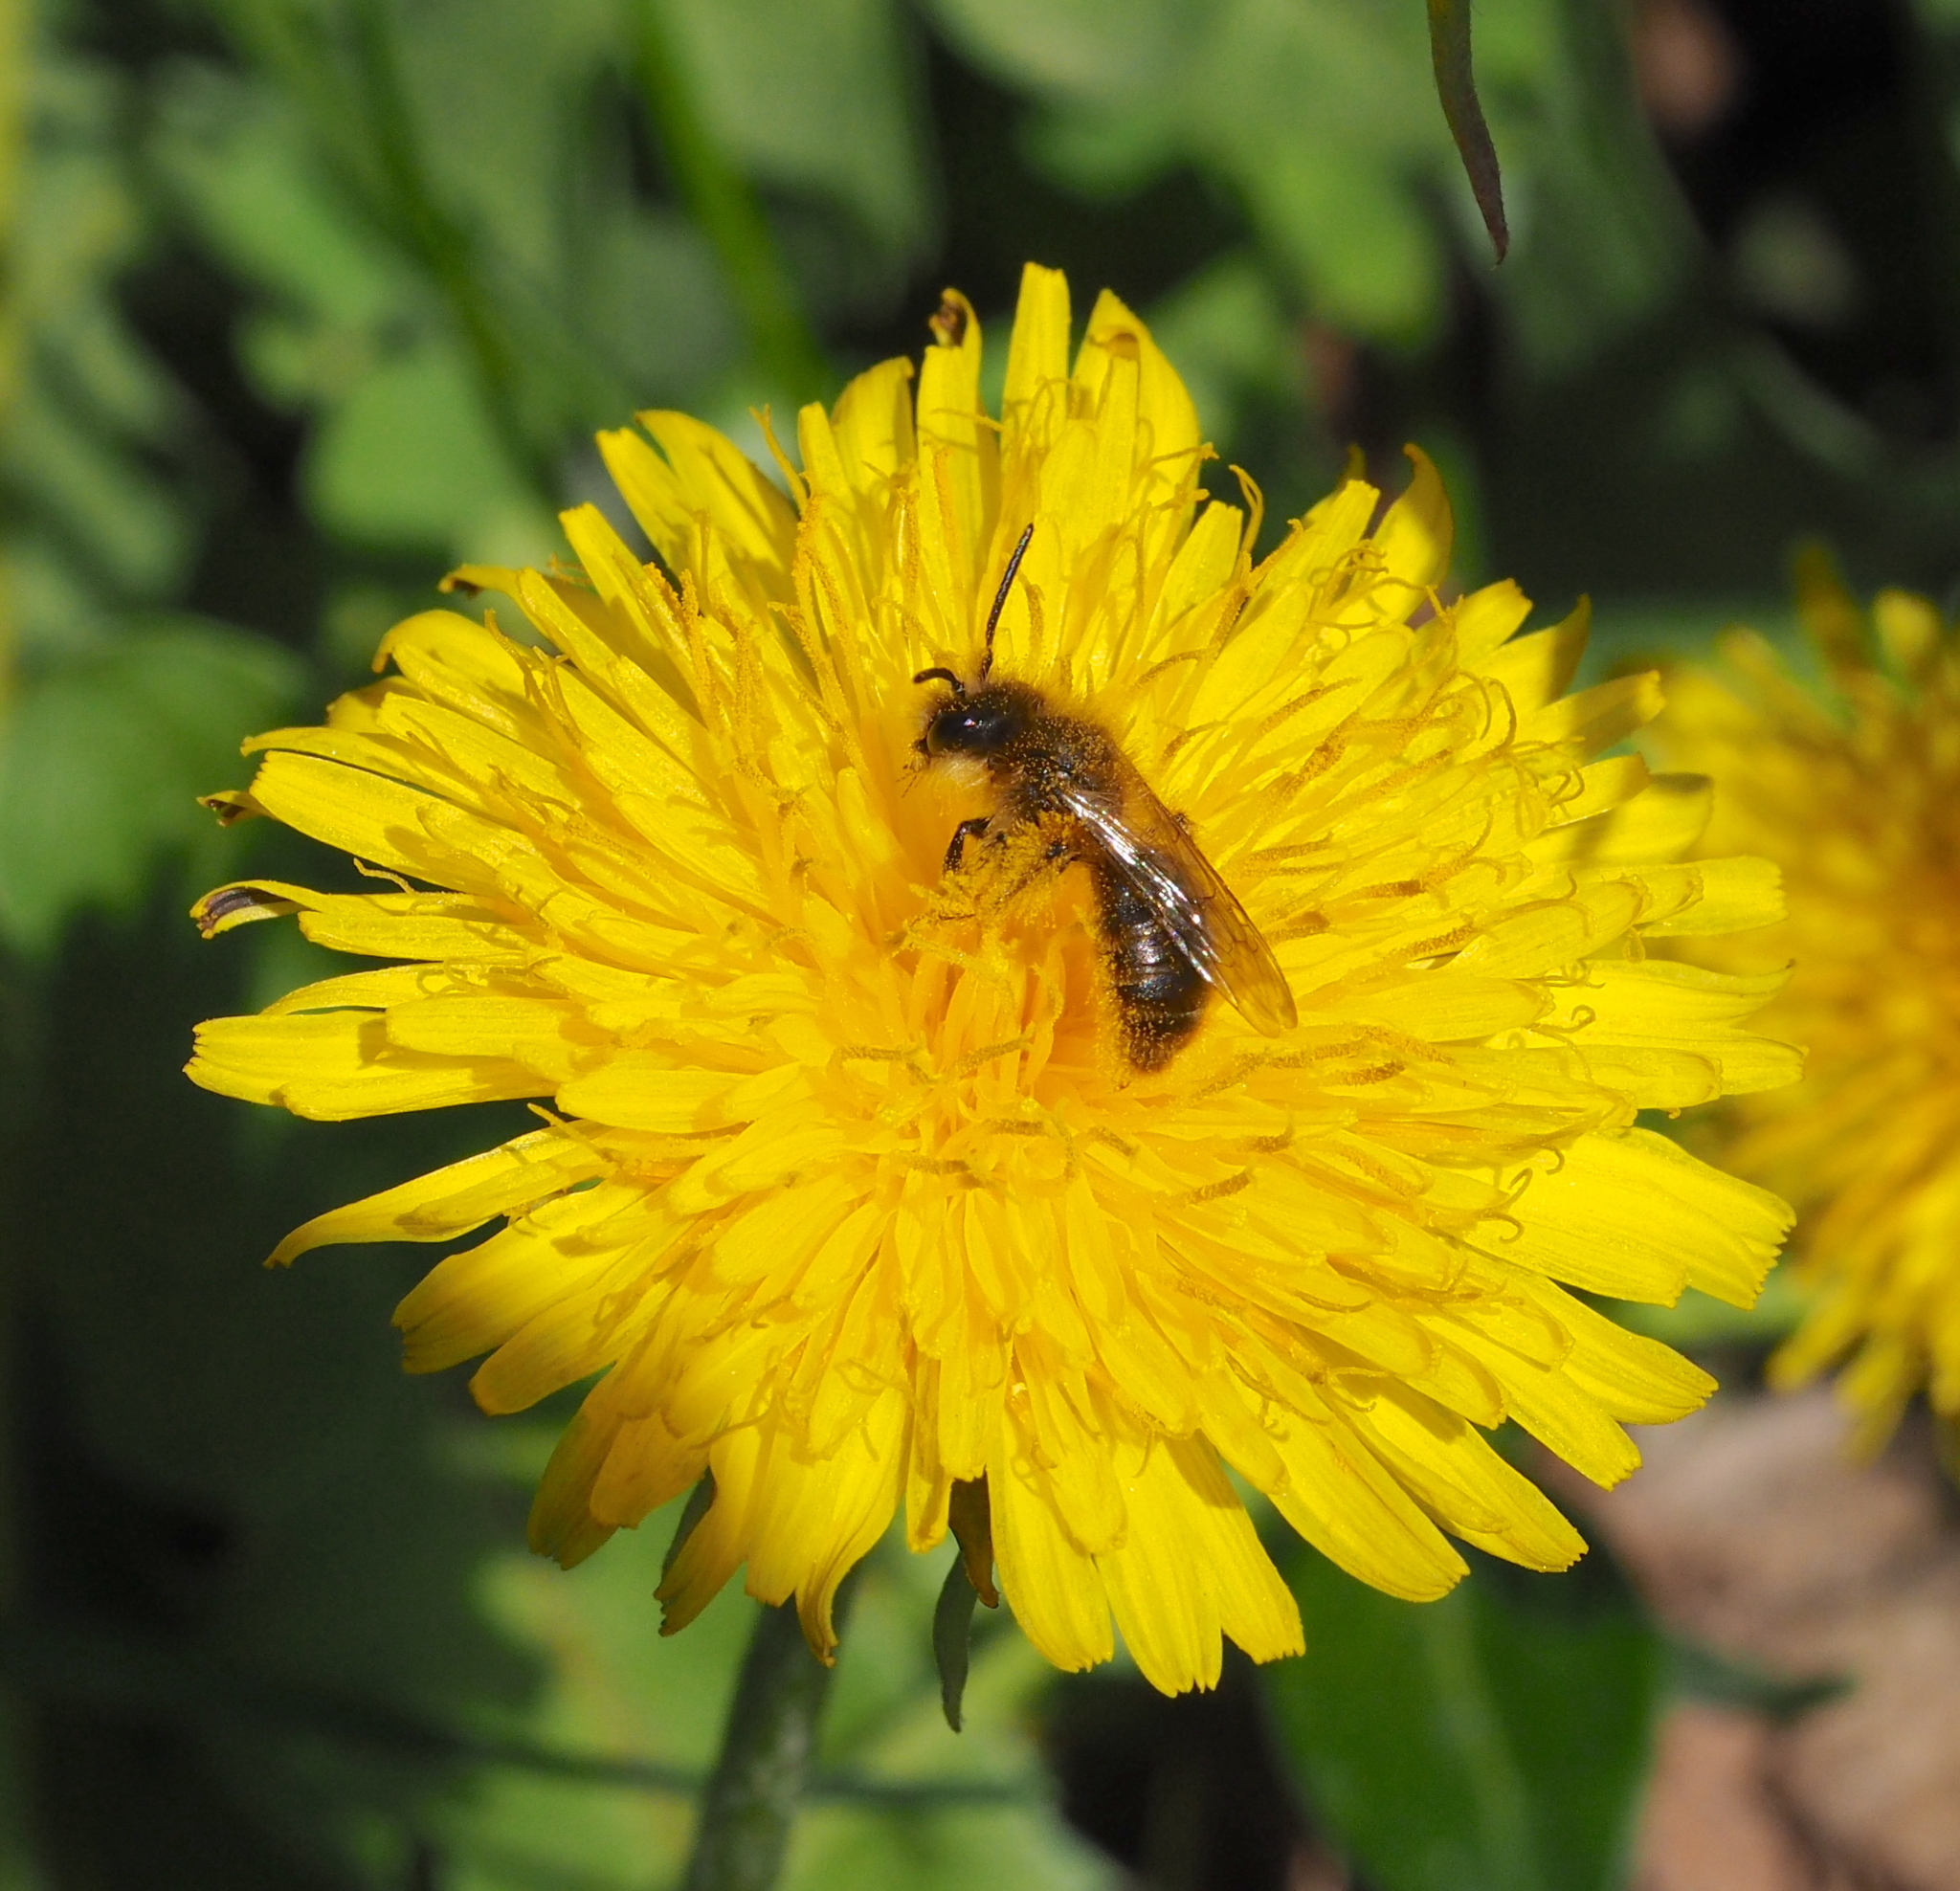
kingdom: Animalia
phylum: Arthropoda
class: Insecta
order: Hymenoptera
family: Andrenidae
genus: Andrena
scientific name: Andrena taraxaci
